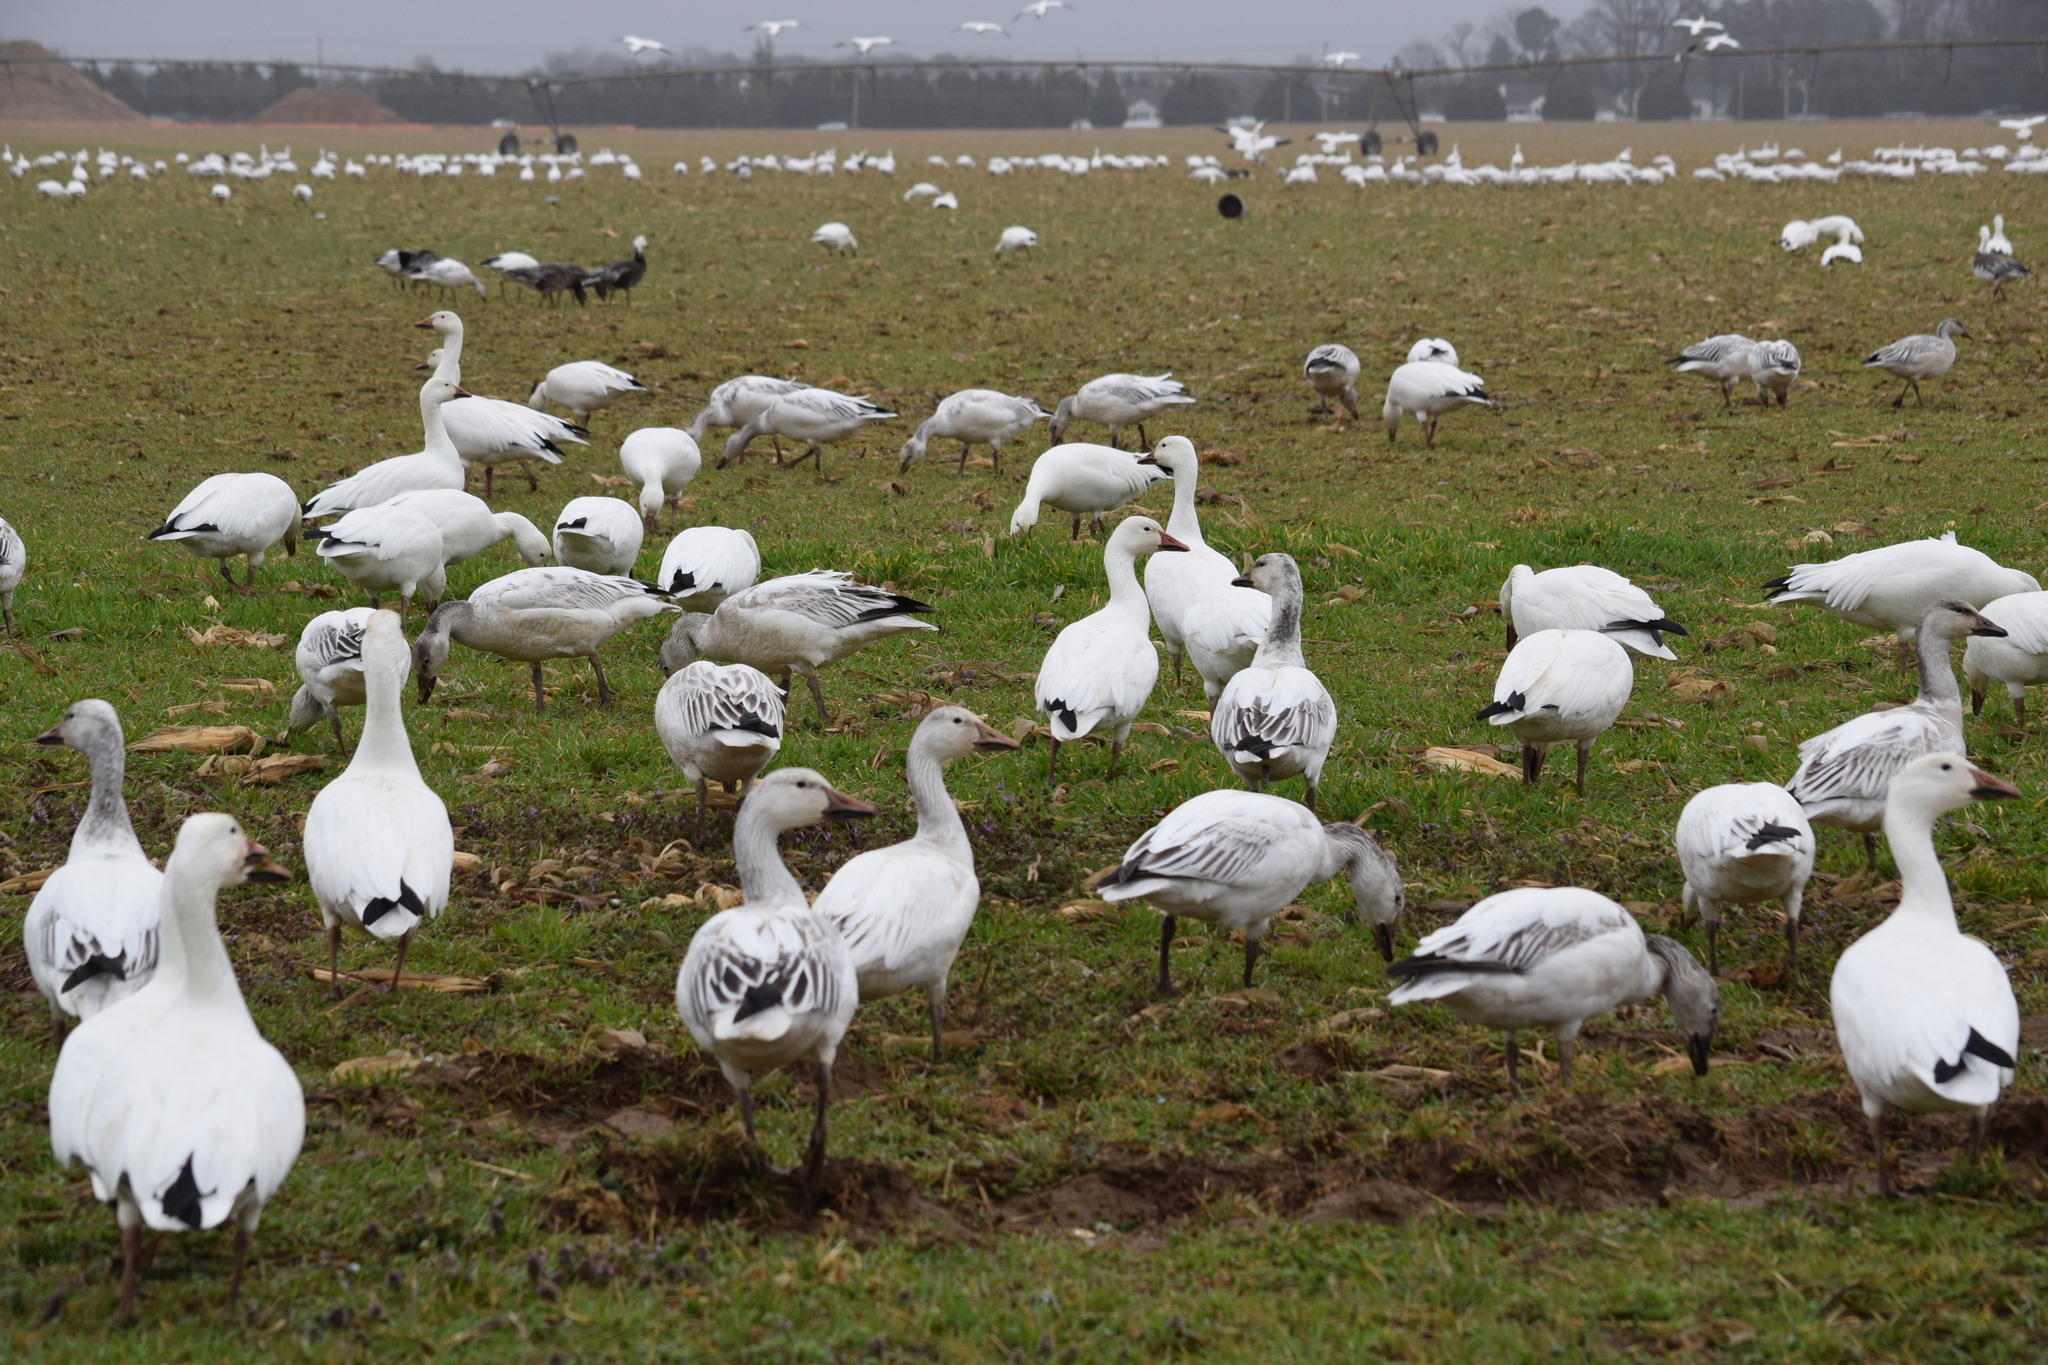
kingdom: Animalia
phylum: Chordata
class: Aves
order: Anseriformes
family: Anatidae
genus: Anser
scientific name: Anser caerulescens
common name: Snow goose
